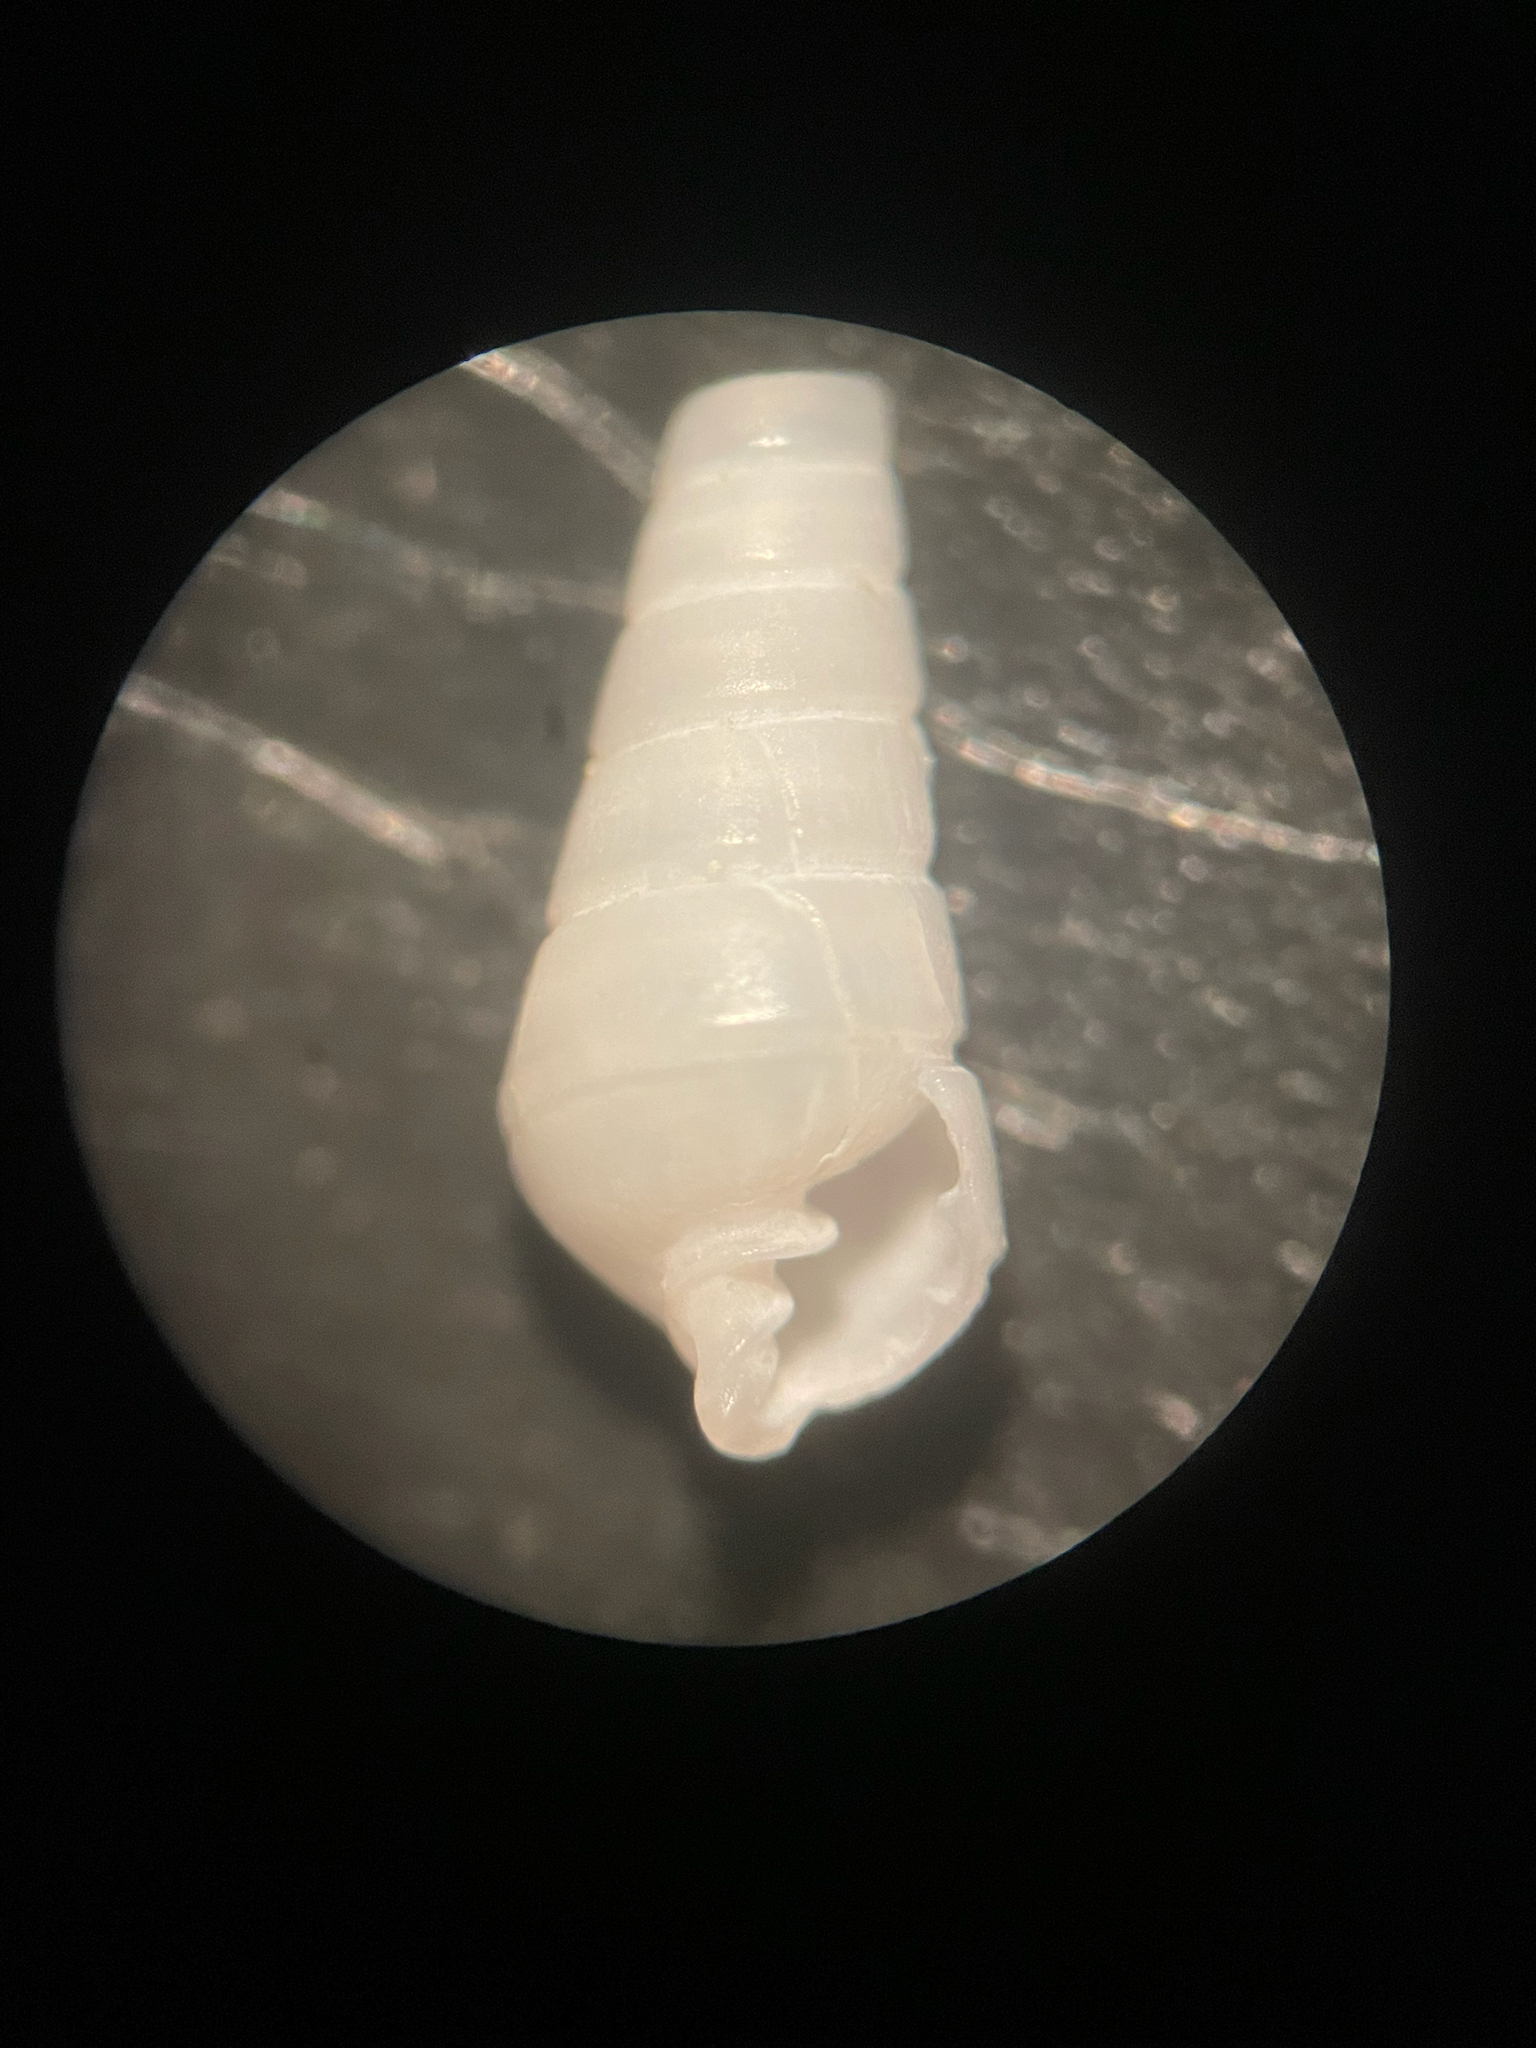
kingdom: Animalia
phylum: Mollusca
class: Gastropoda
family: Pyramidellidae
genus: Longchaeus
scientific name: Longchaeus suturalis
